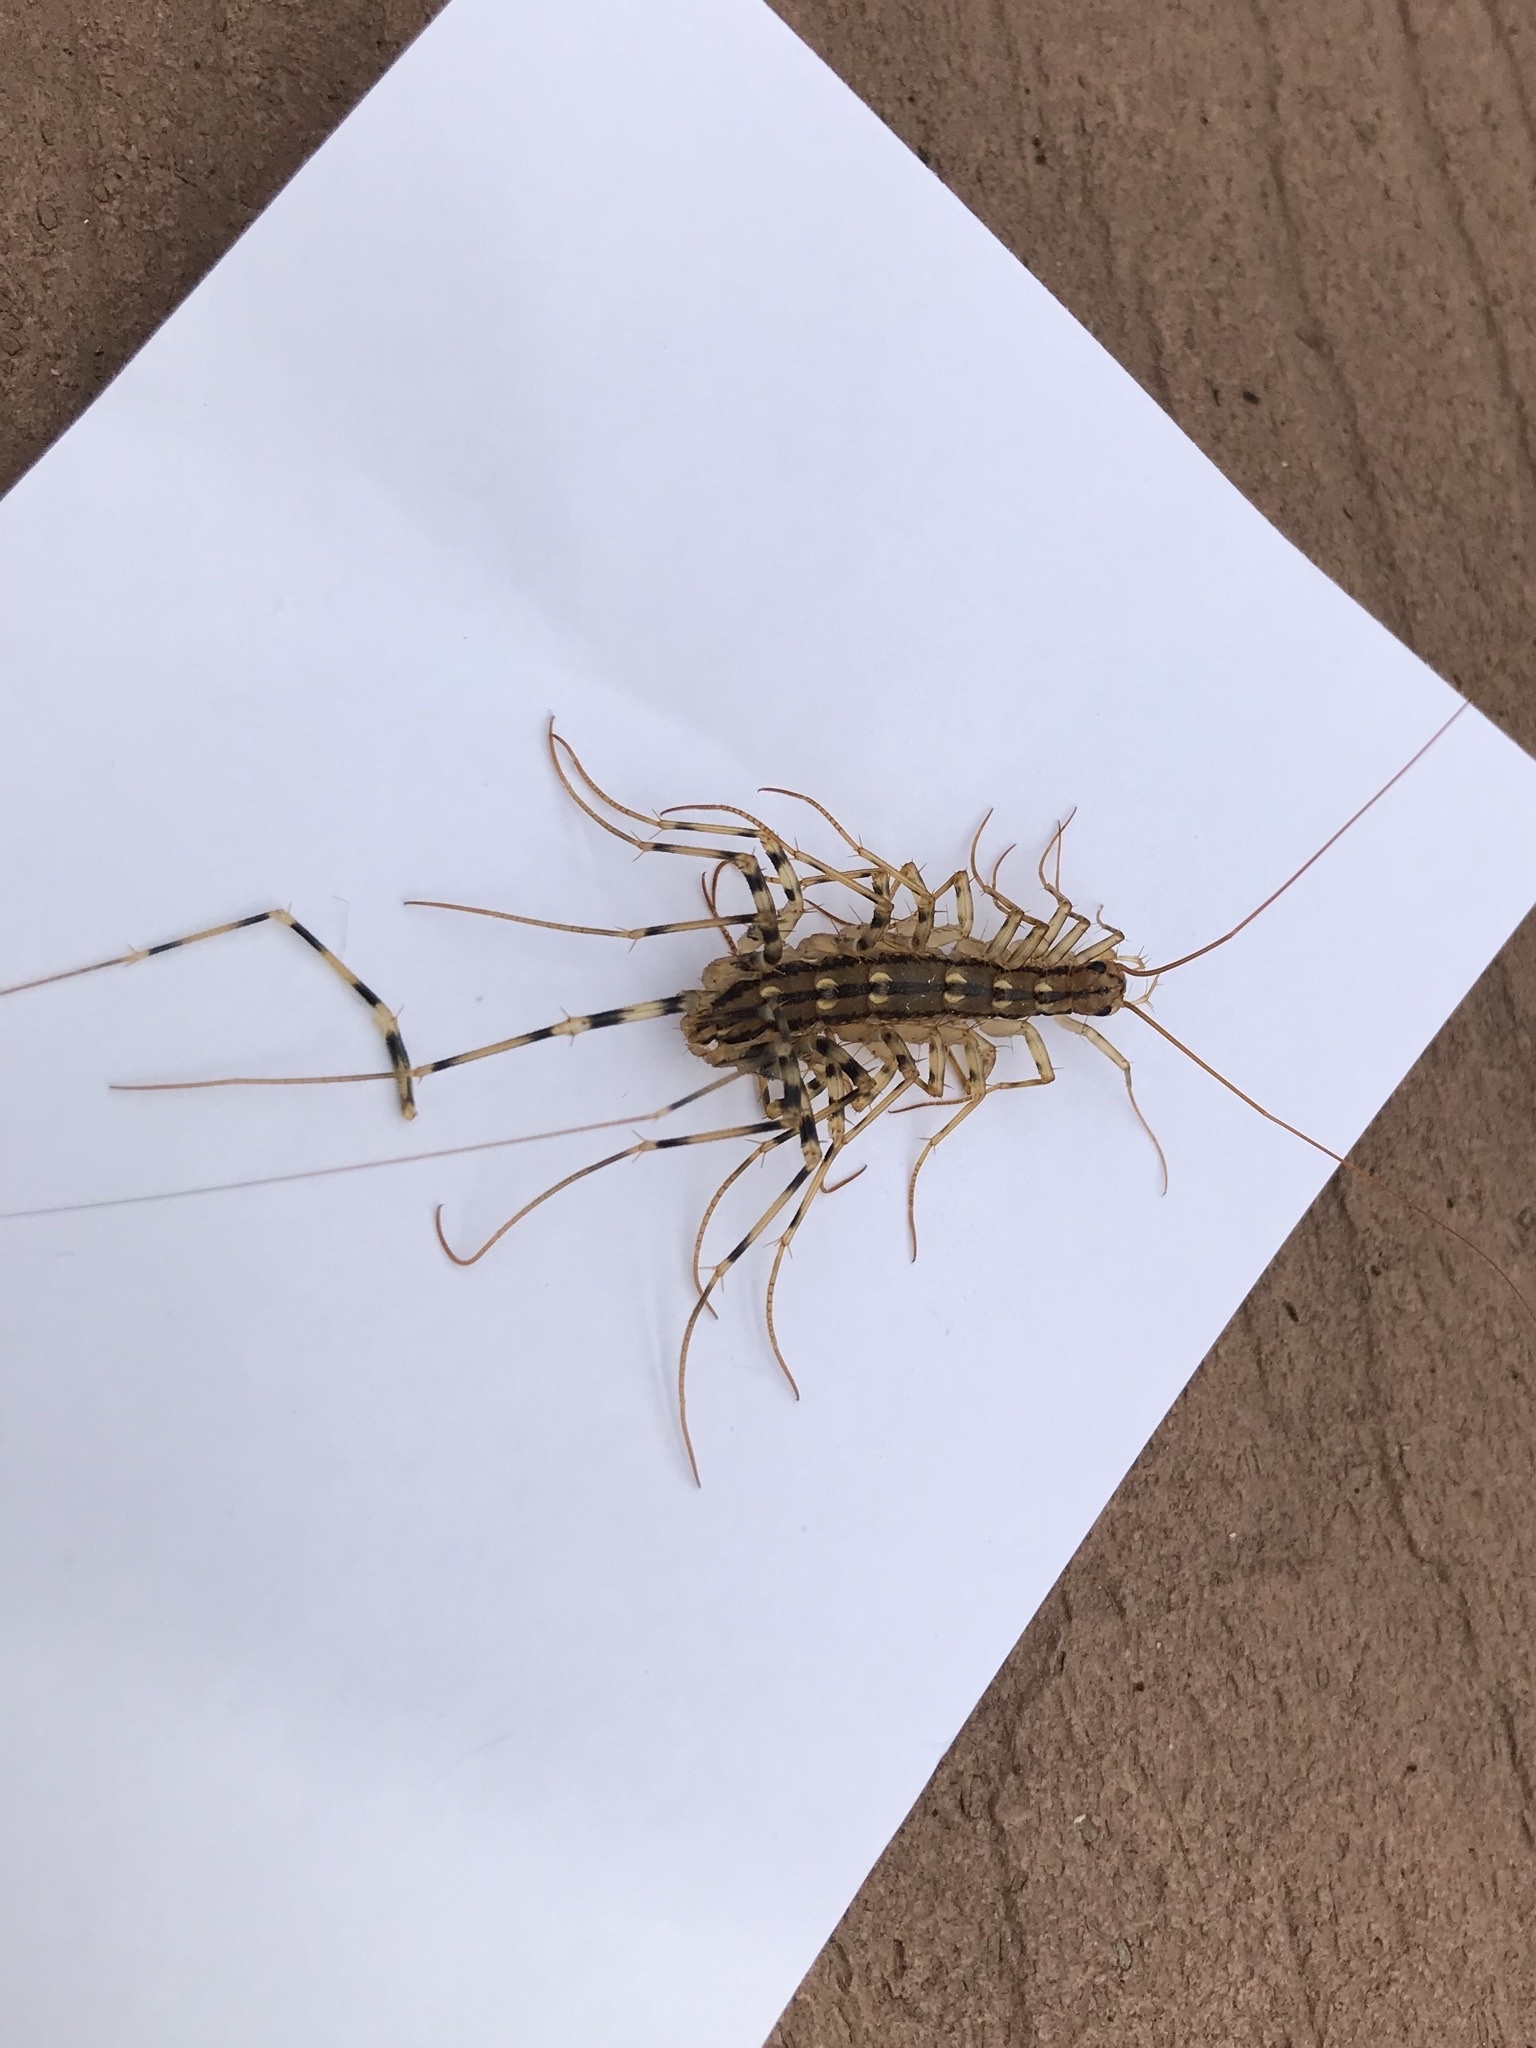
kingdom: Animalia
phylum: Arthropoda
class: Chilopoda
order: Scutigeromorpha
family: Scutigeridae
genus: Scutigera
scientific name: Scutigera coleoptrata
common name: House centipede
